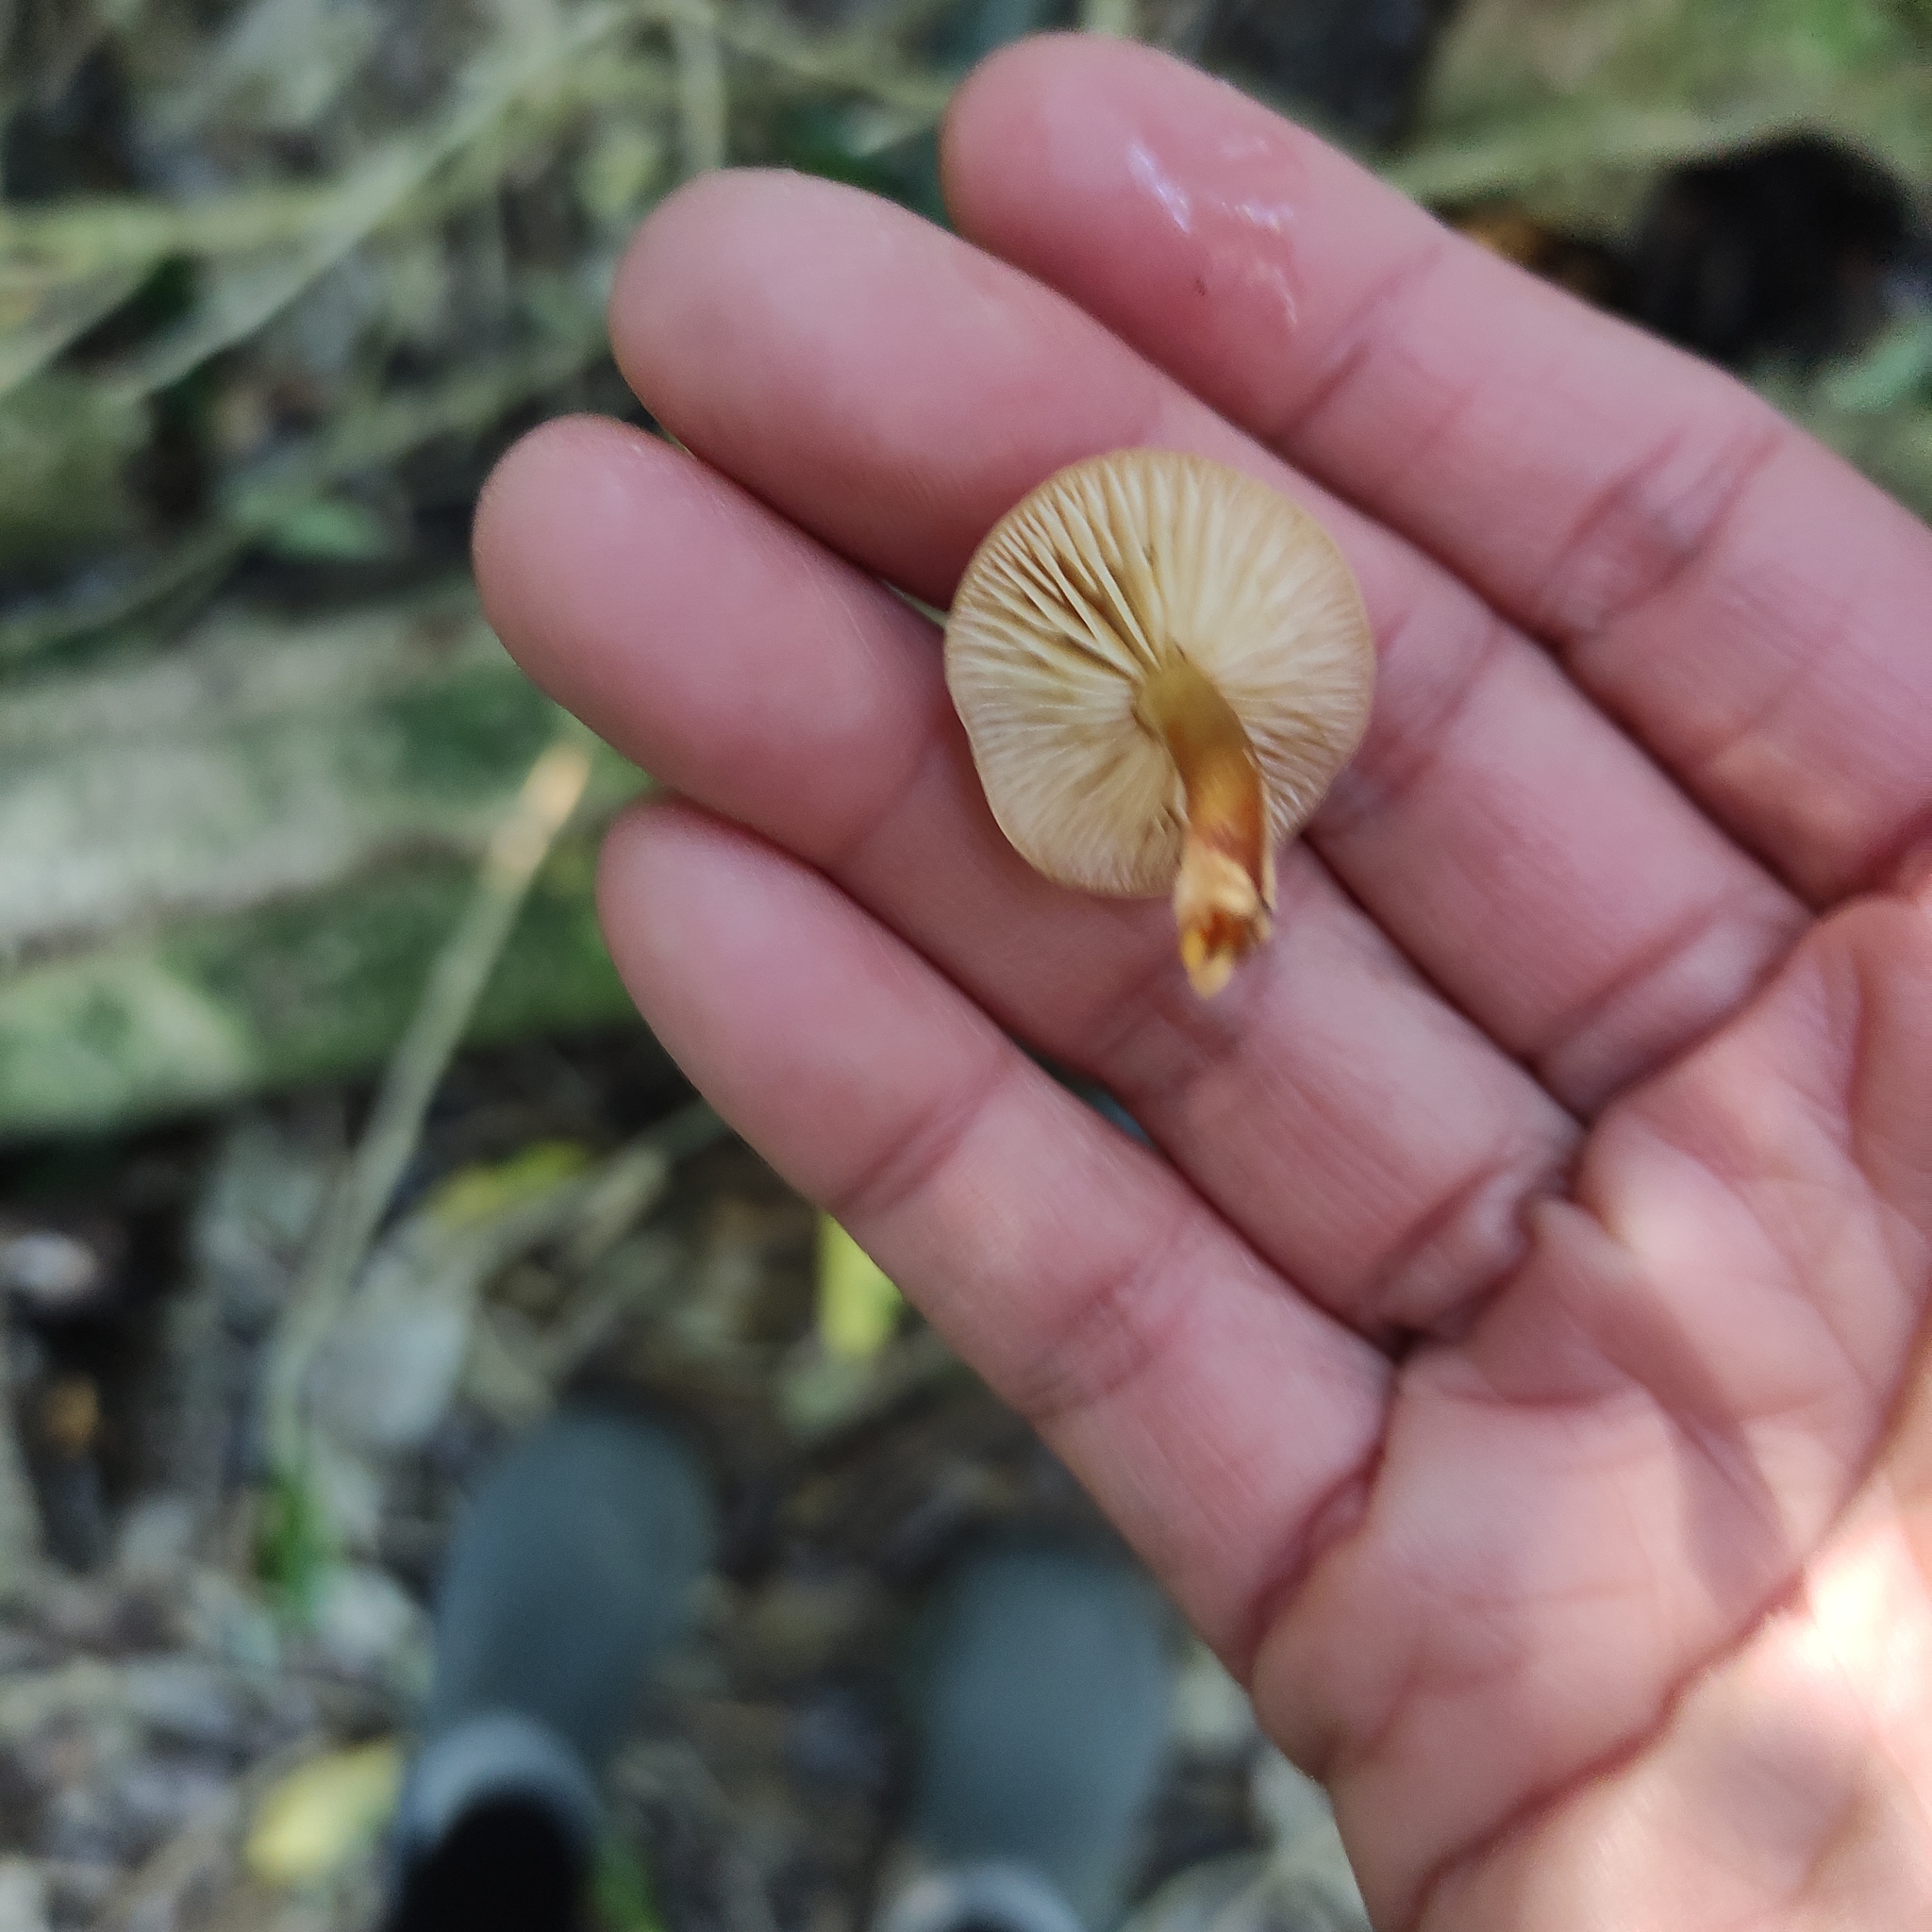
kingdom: Fungi
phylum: Basidiomycota
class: Agaricomycetes
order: Agaricales
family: Physalacriaceae
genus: Flammulina
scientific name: Flammulina velutipes
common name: Velvet shank
